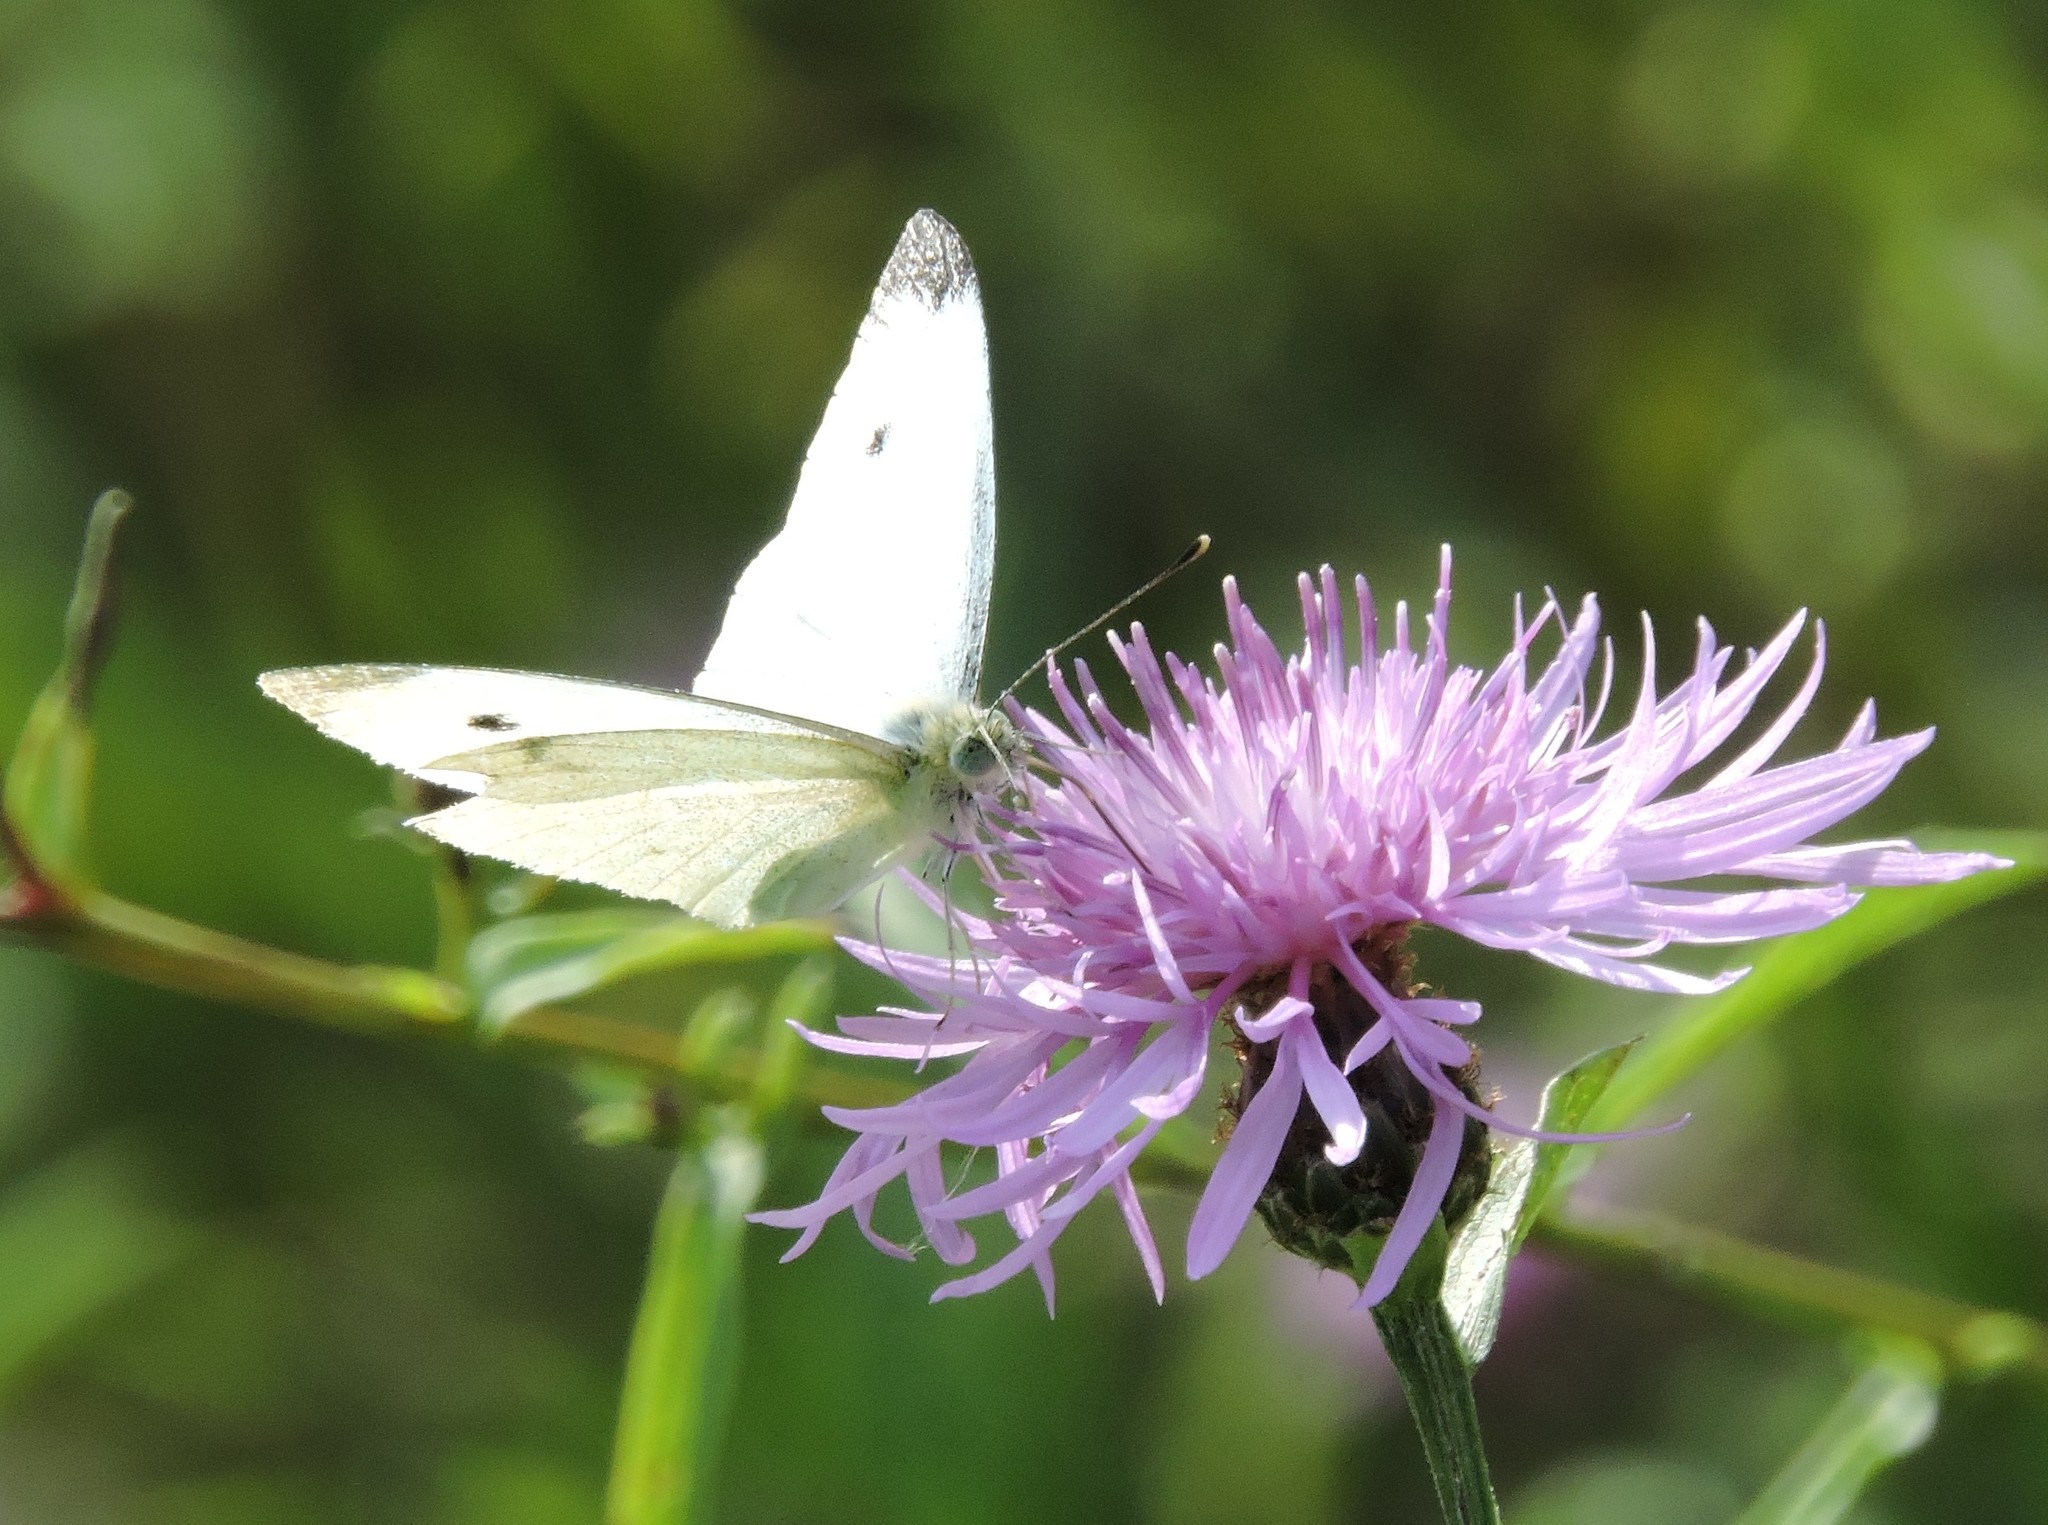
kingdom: Animalia
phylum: Arthropoda
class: Insecta
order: Lepidoptera
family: Pieridae
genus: Pieris
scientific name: Pieris rapae
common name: Small white
